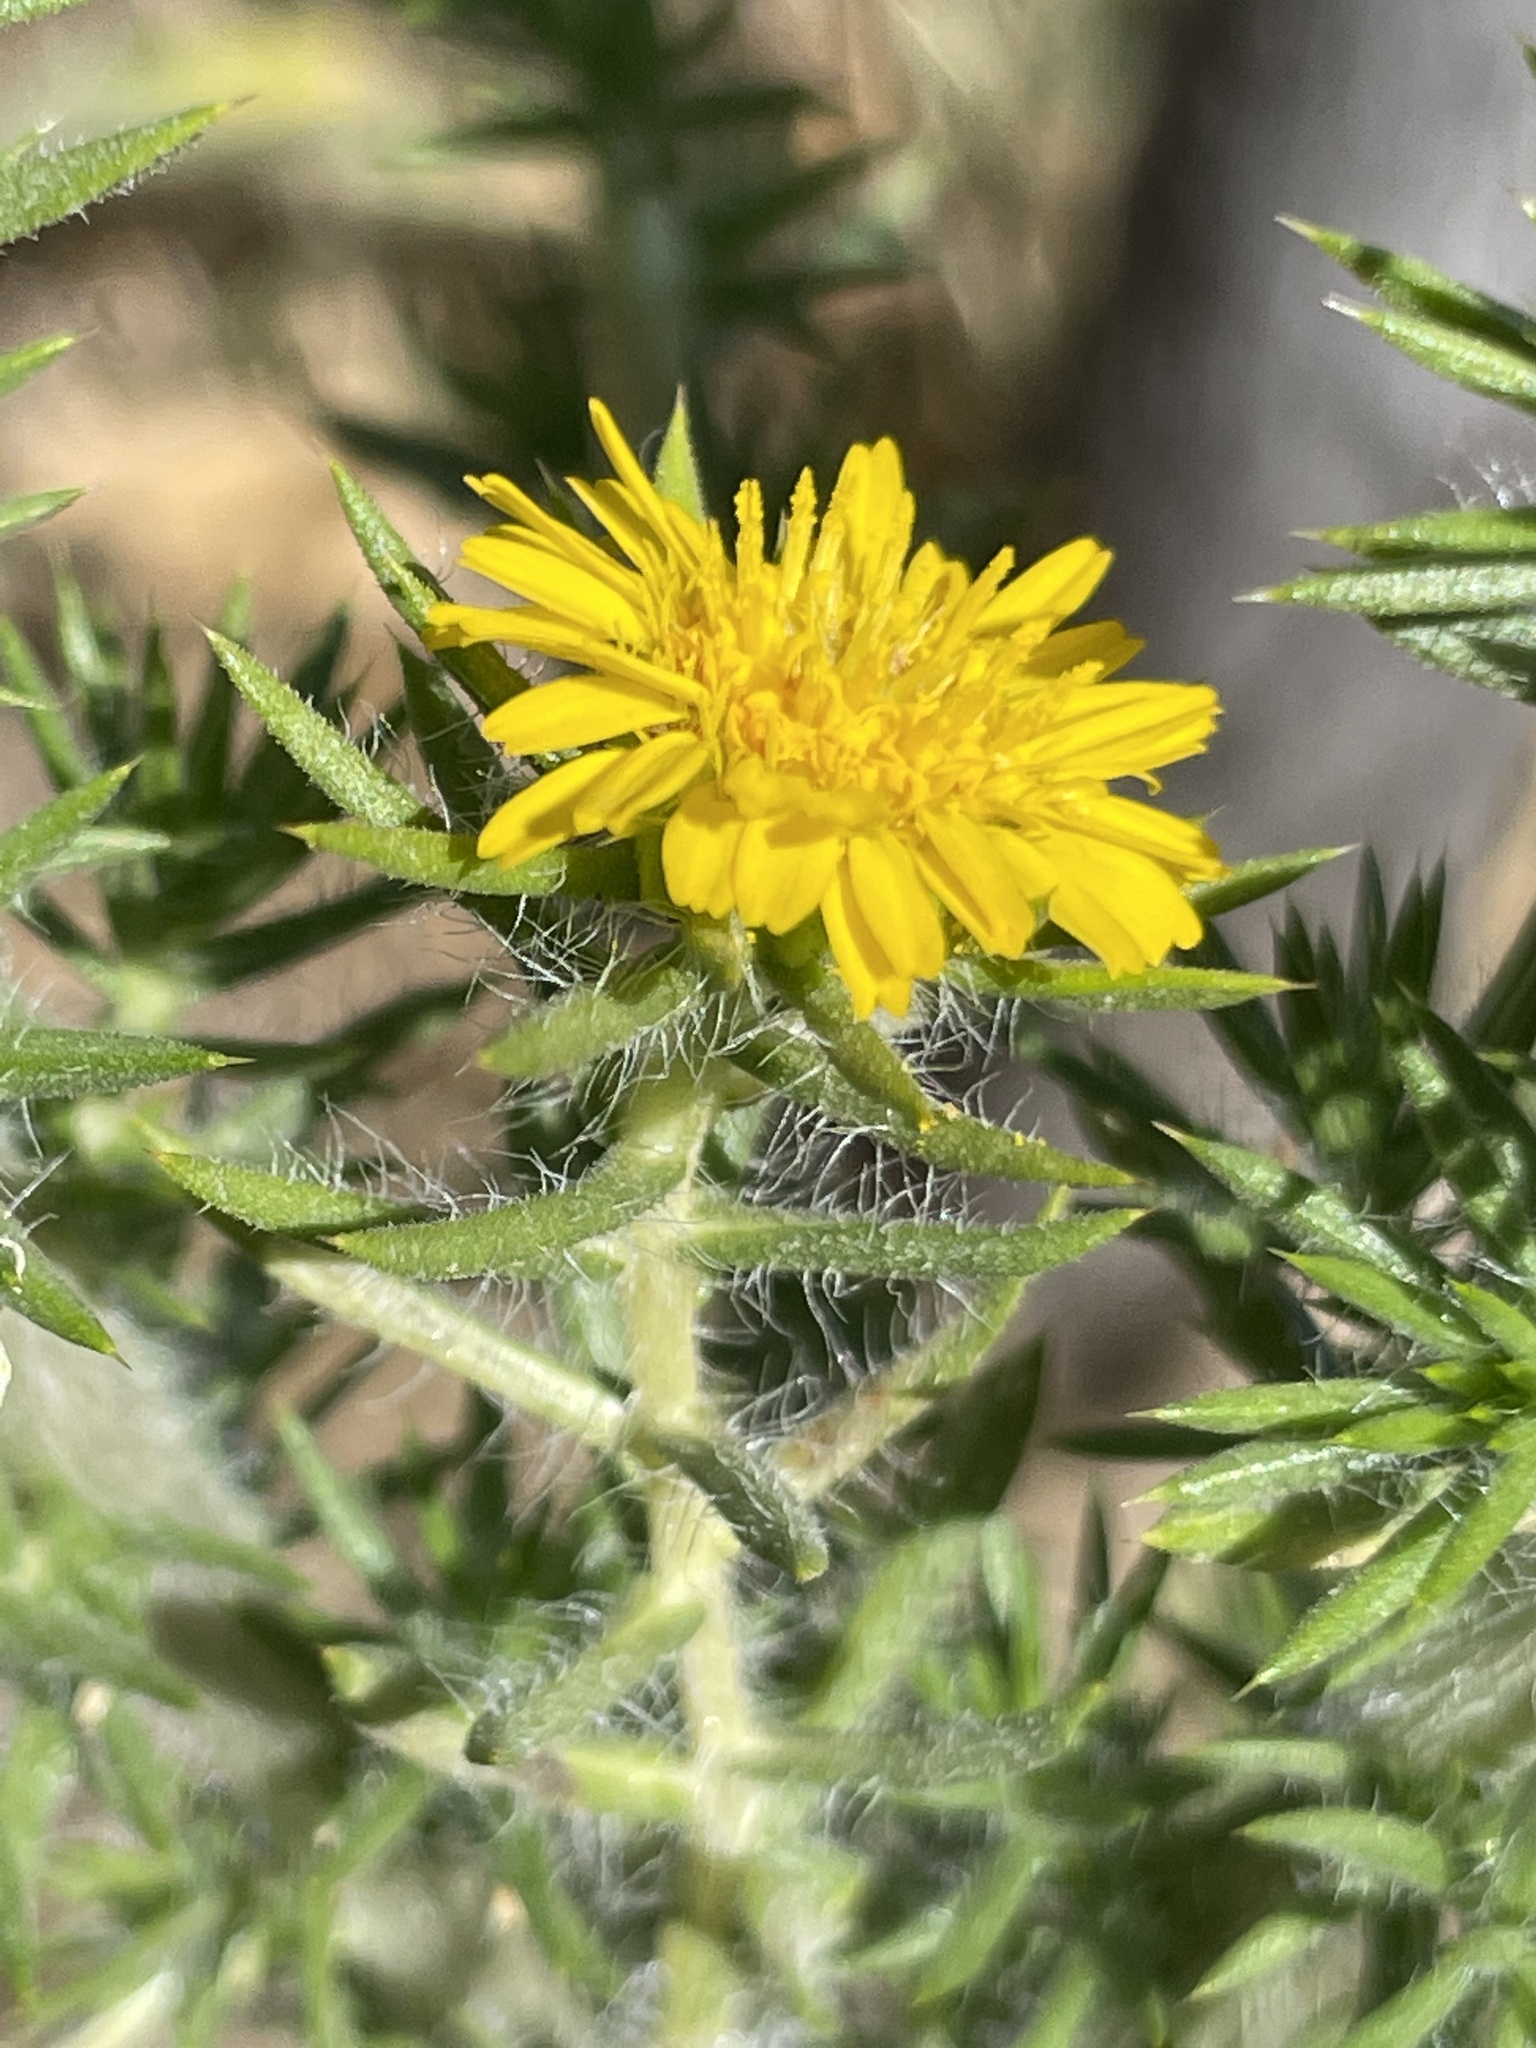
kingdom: Plantae
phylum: Tracheophyta
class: Magnoliopsida
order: Asterales
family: Asteraceae
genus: Centromadia
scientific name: Centromadia pungens
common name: Common spikeweed
